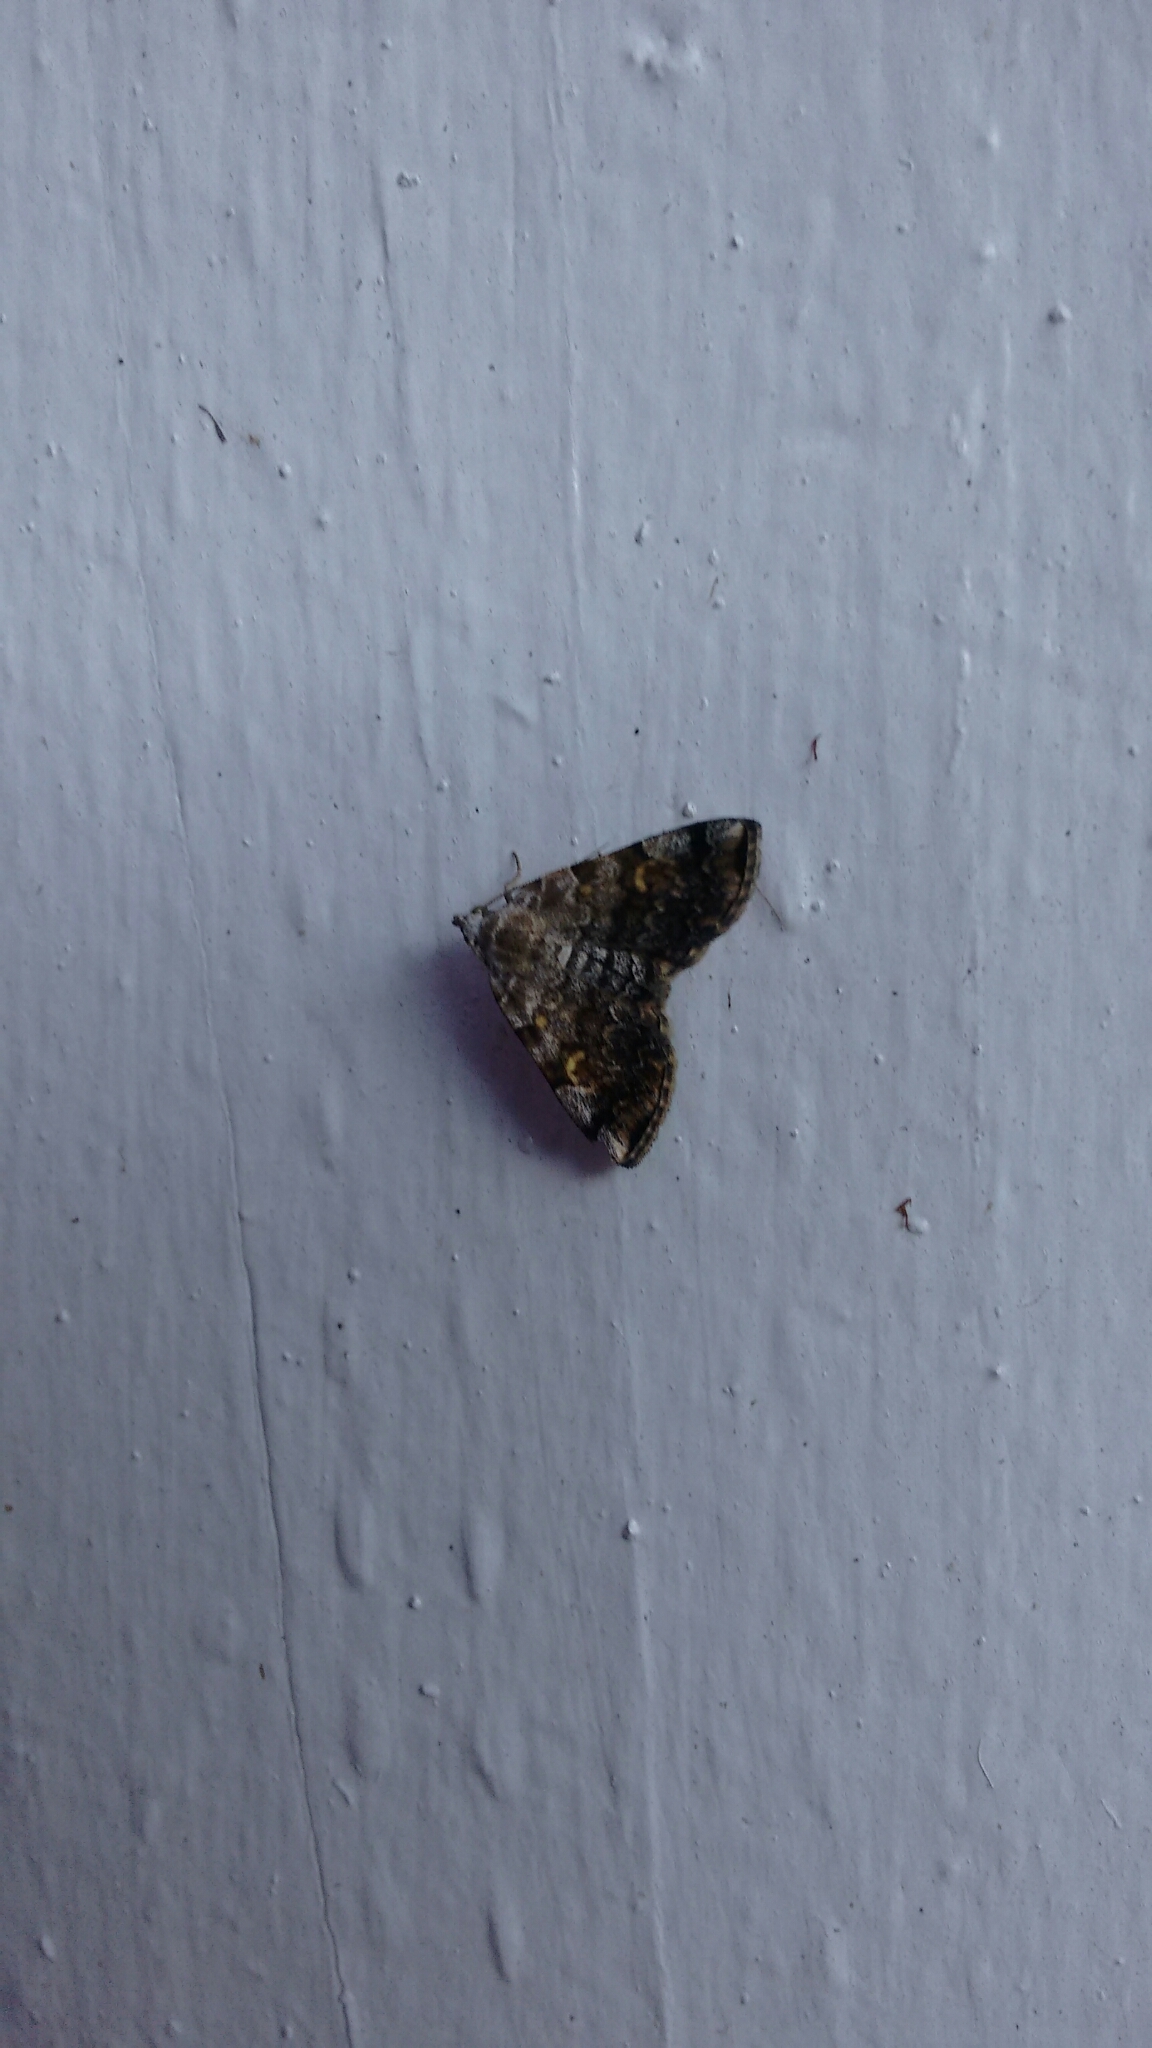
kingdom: Animalia
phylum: Arthropoda
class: Insecta
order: Lepidoptera
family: Erebidae
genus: Idia
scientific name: Idia americalis
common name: American idia moth
